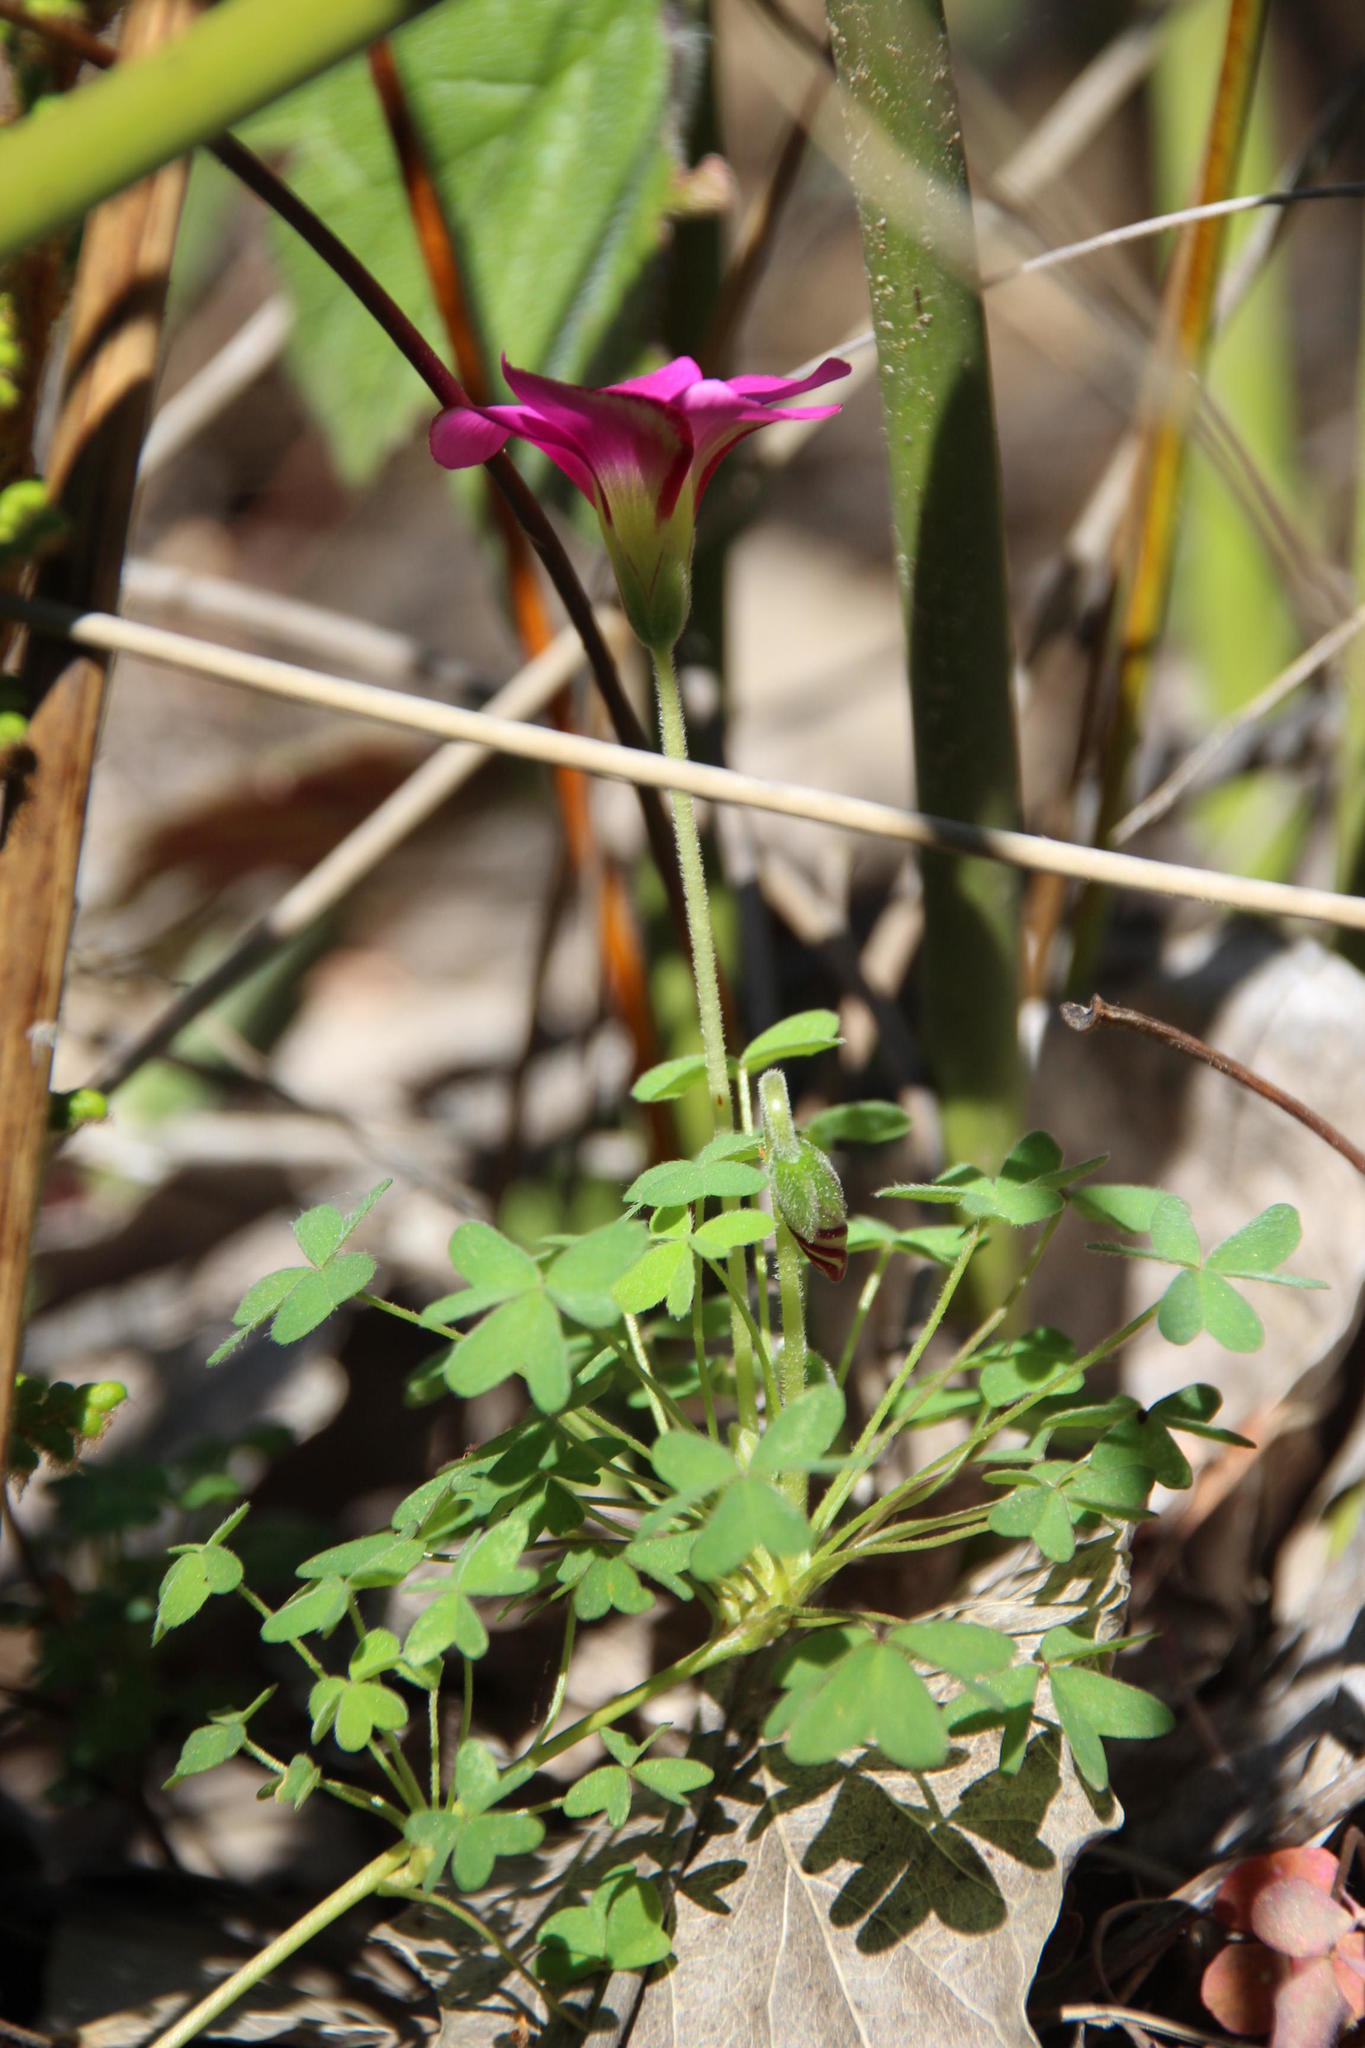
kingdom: Plantae
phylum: Tracheophyta
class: Magnoliopsida
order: Oxalidales
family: Oxalidaceae
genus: Oxalis
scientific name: Oxalis heterophylla
